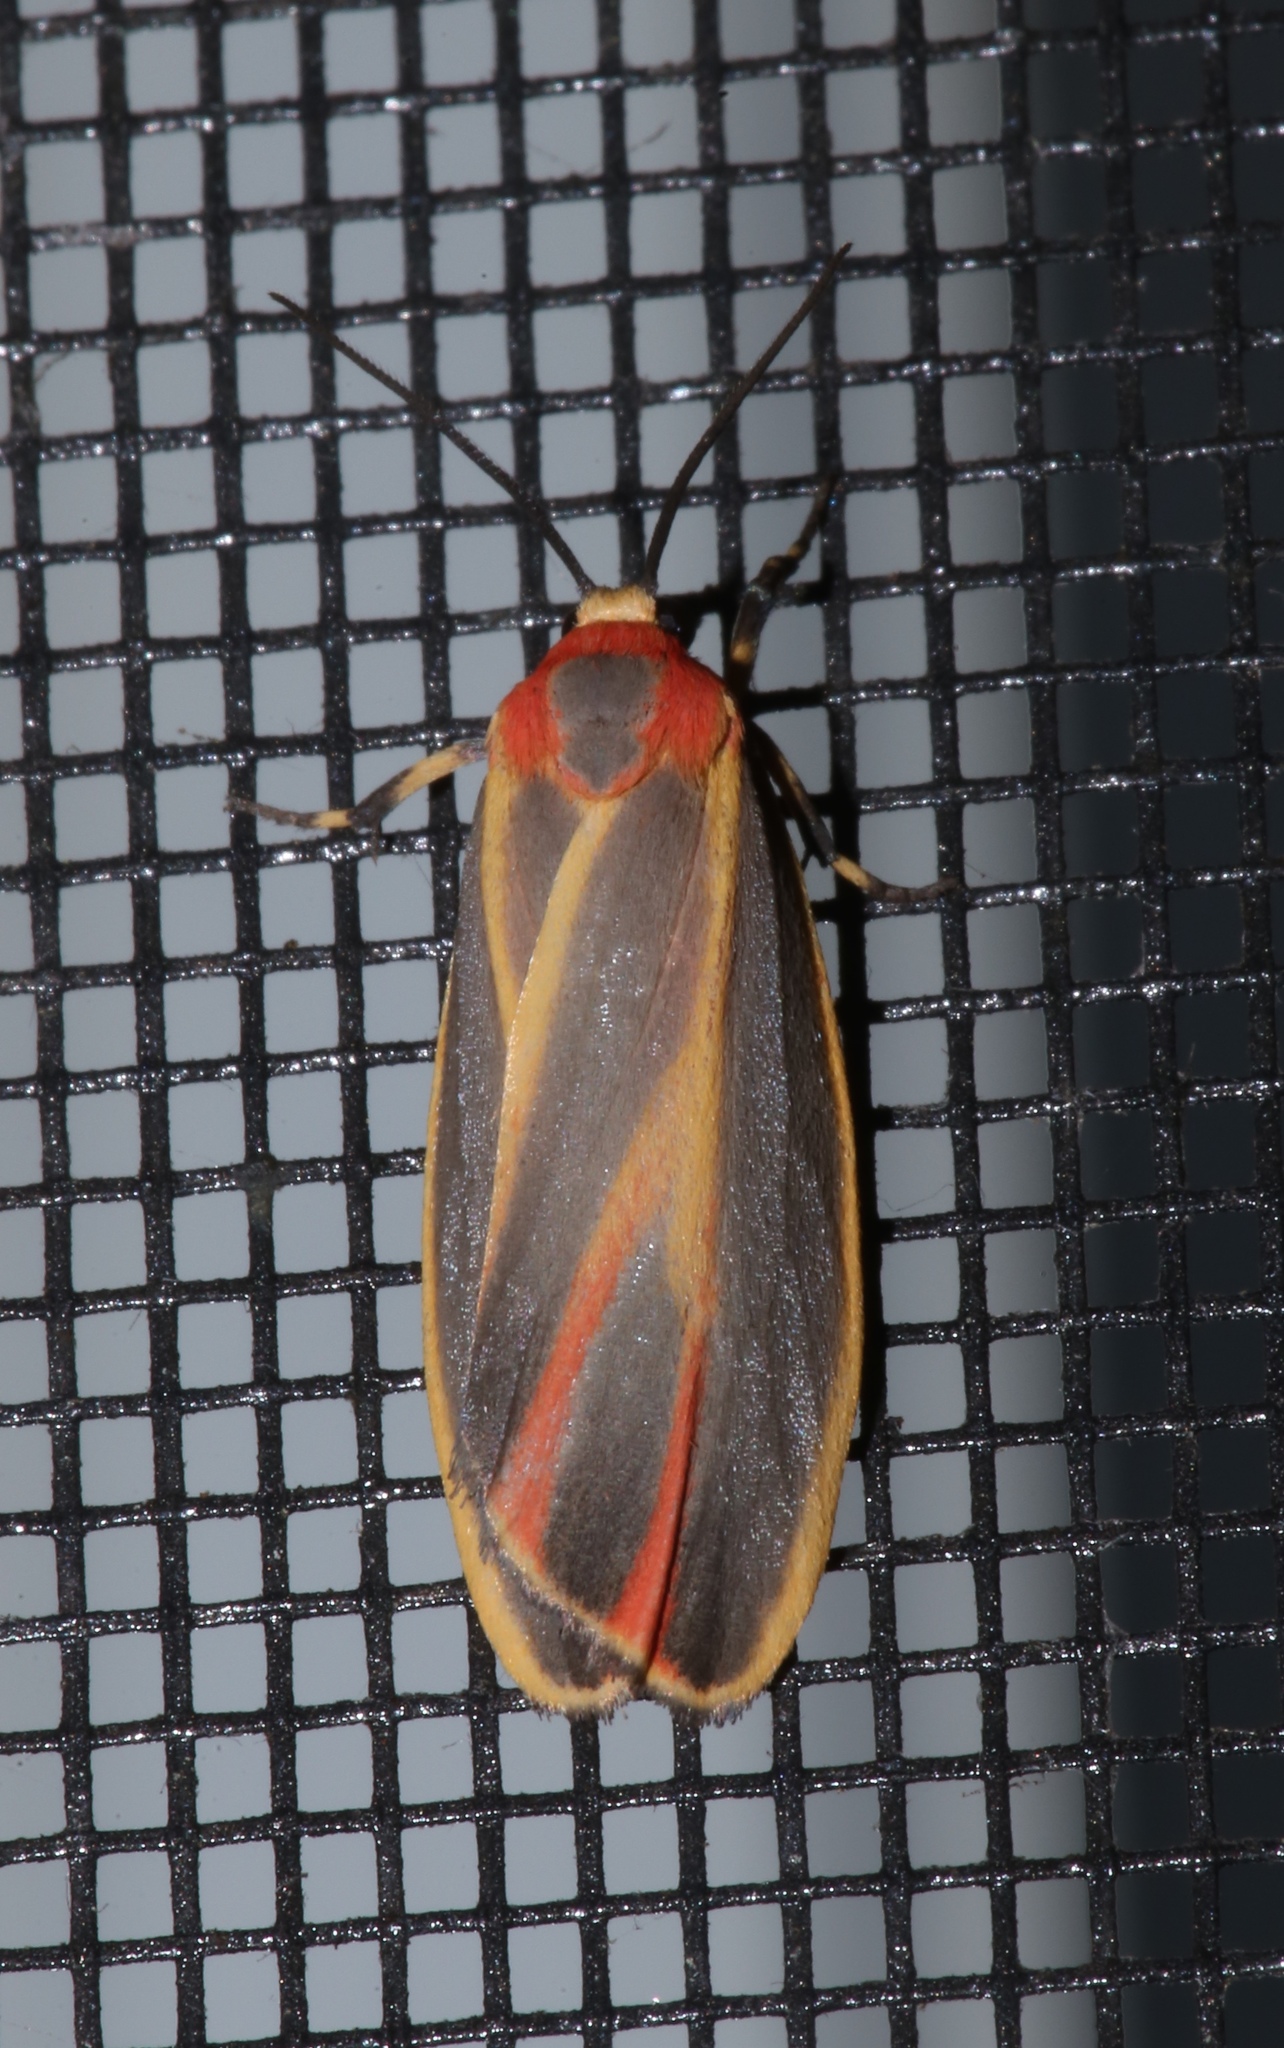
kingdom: Animalia
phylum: Arthropoda
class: Insecta
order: Lepidoptera
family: Erebidae
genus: Hypoprepia
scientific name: Hypoprepia fucosa
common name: Painted lichen moth
